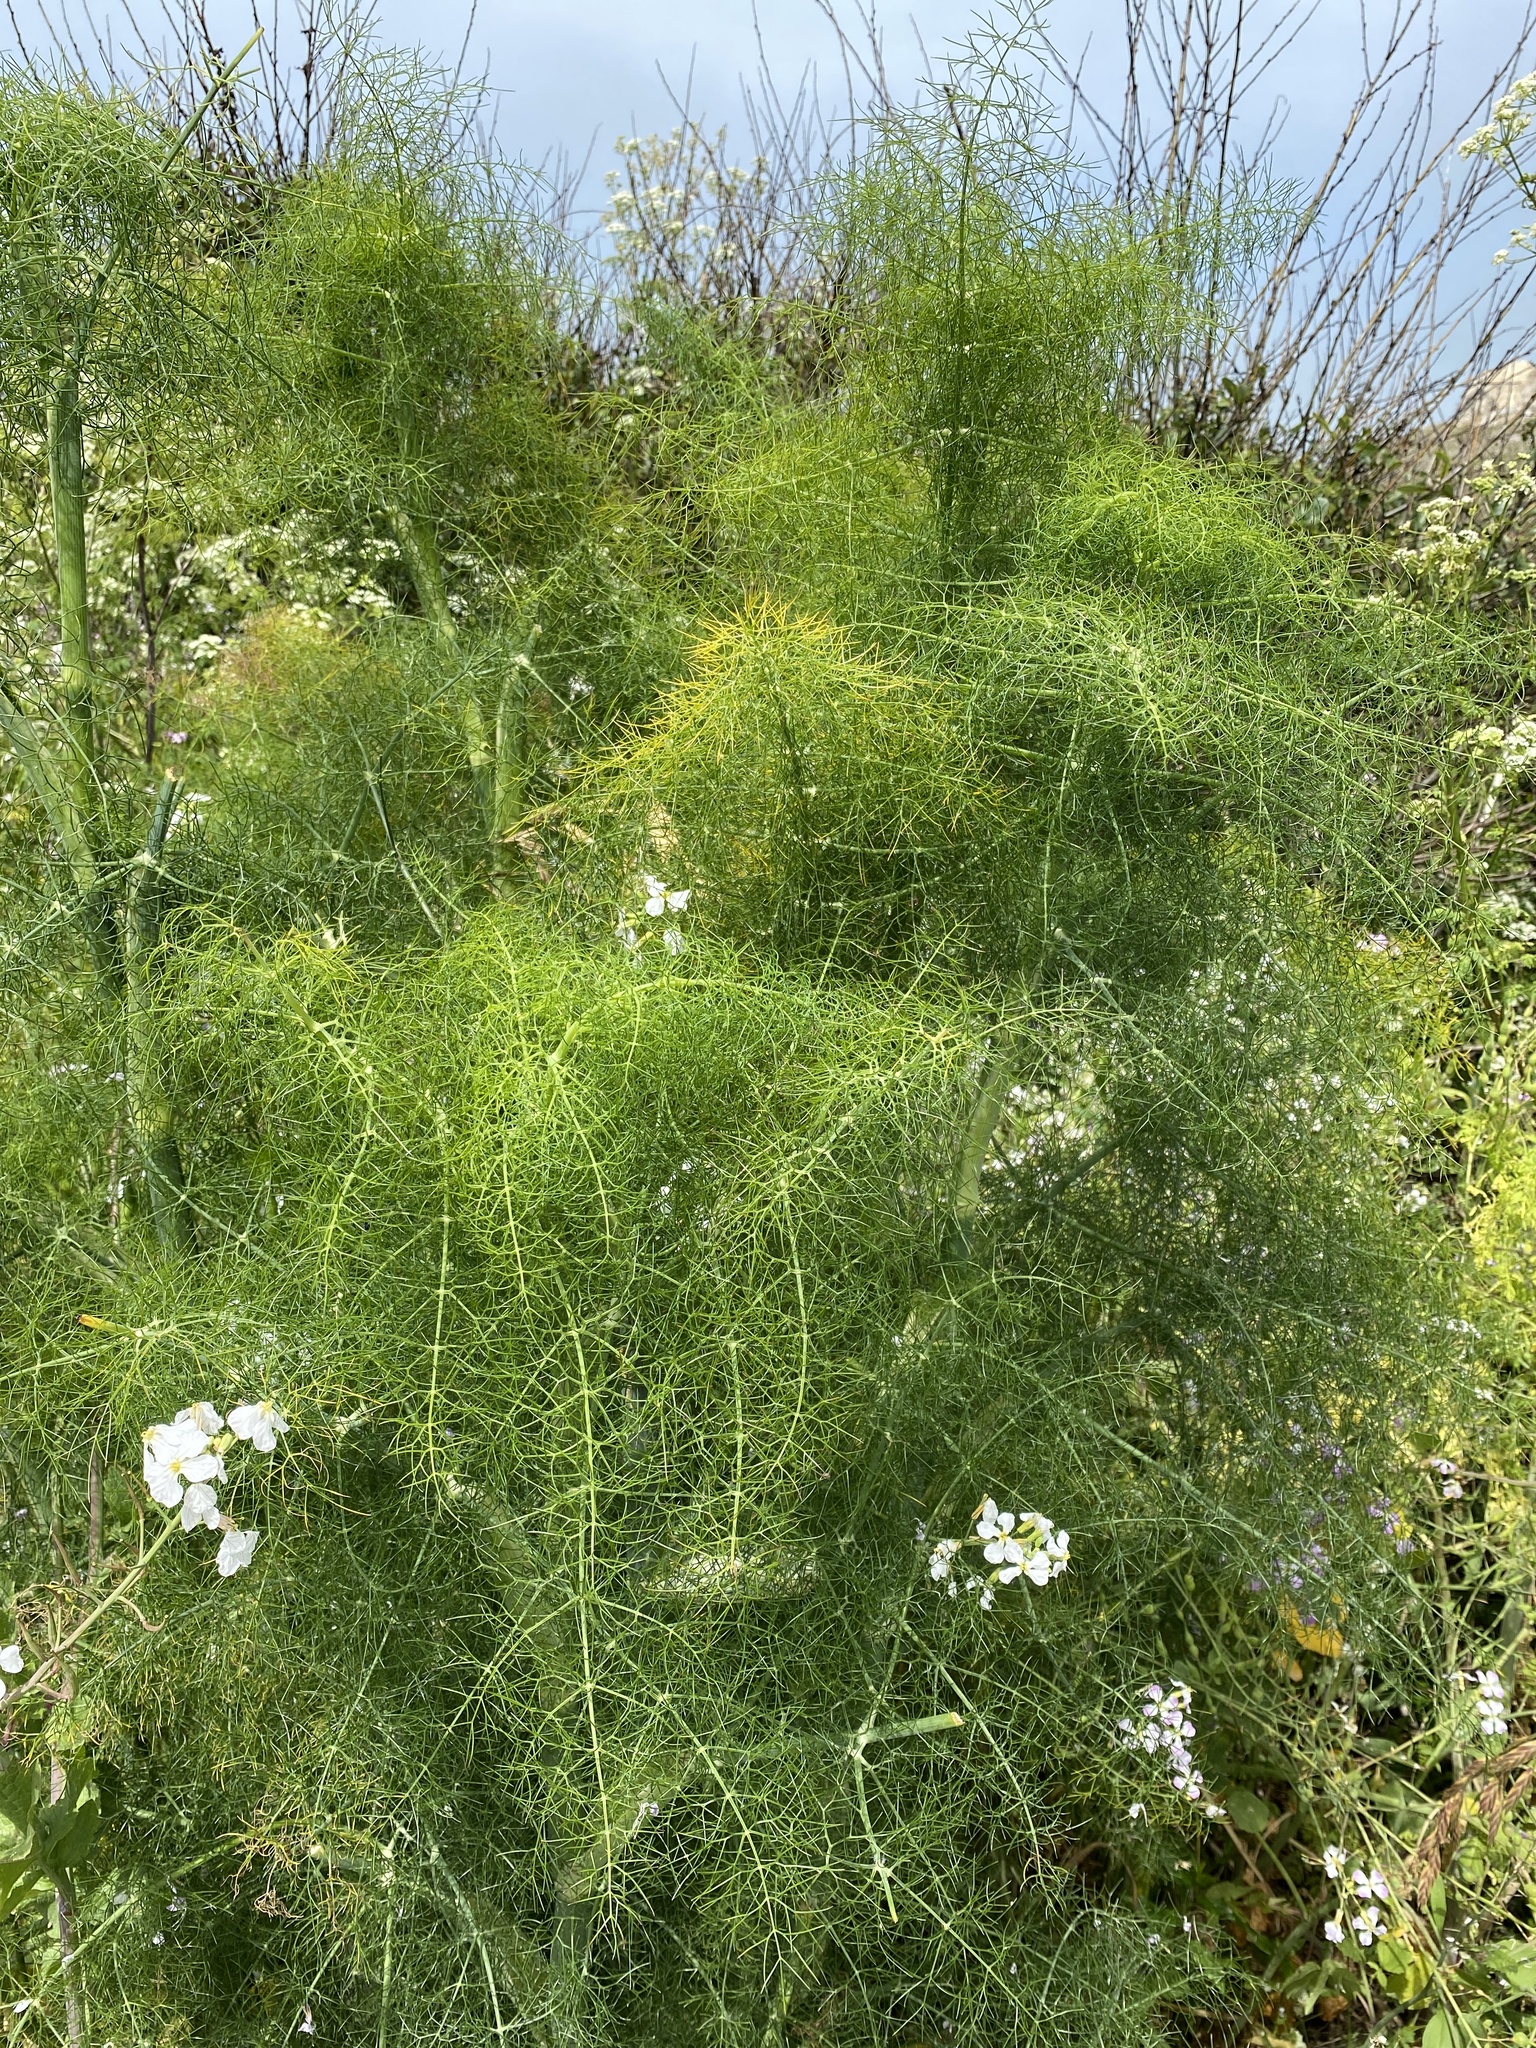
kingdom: Plantae
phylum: Tracheophyta
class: Magnoliopsida
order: Apiales
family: Apiaceae
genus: Foeniculum
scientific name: Foeniculum vulgare
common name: Fennel
